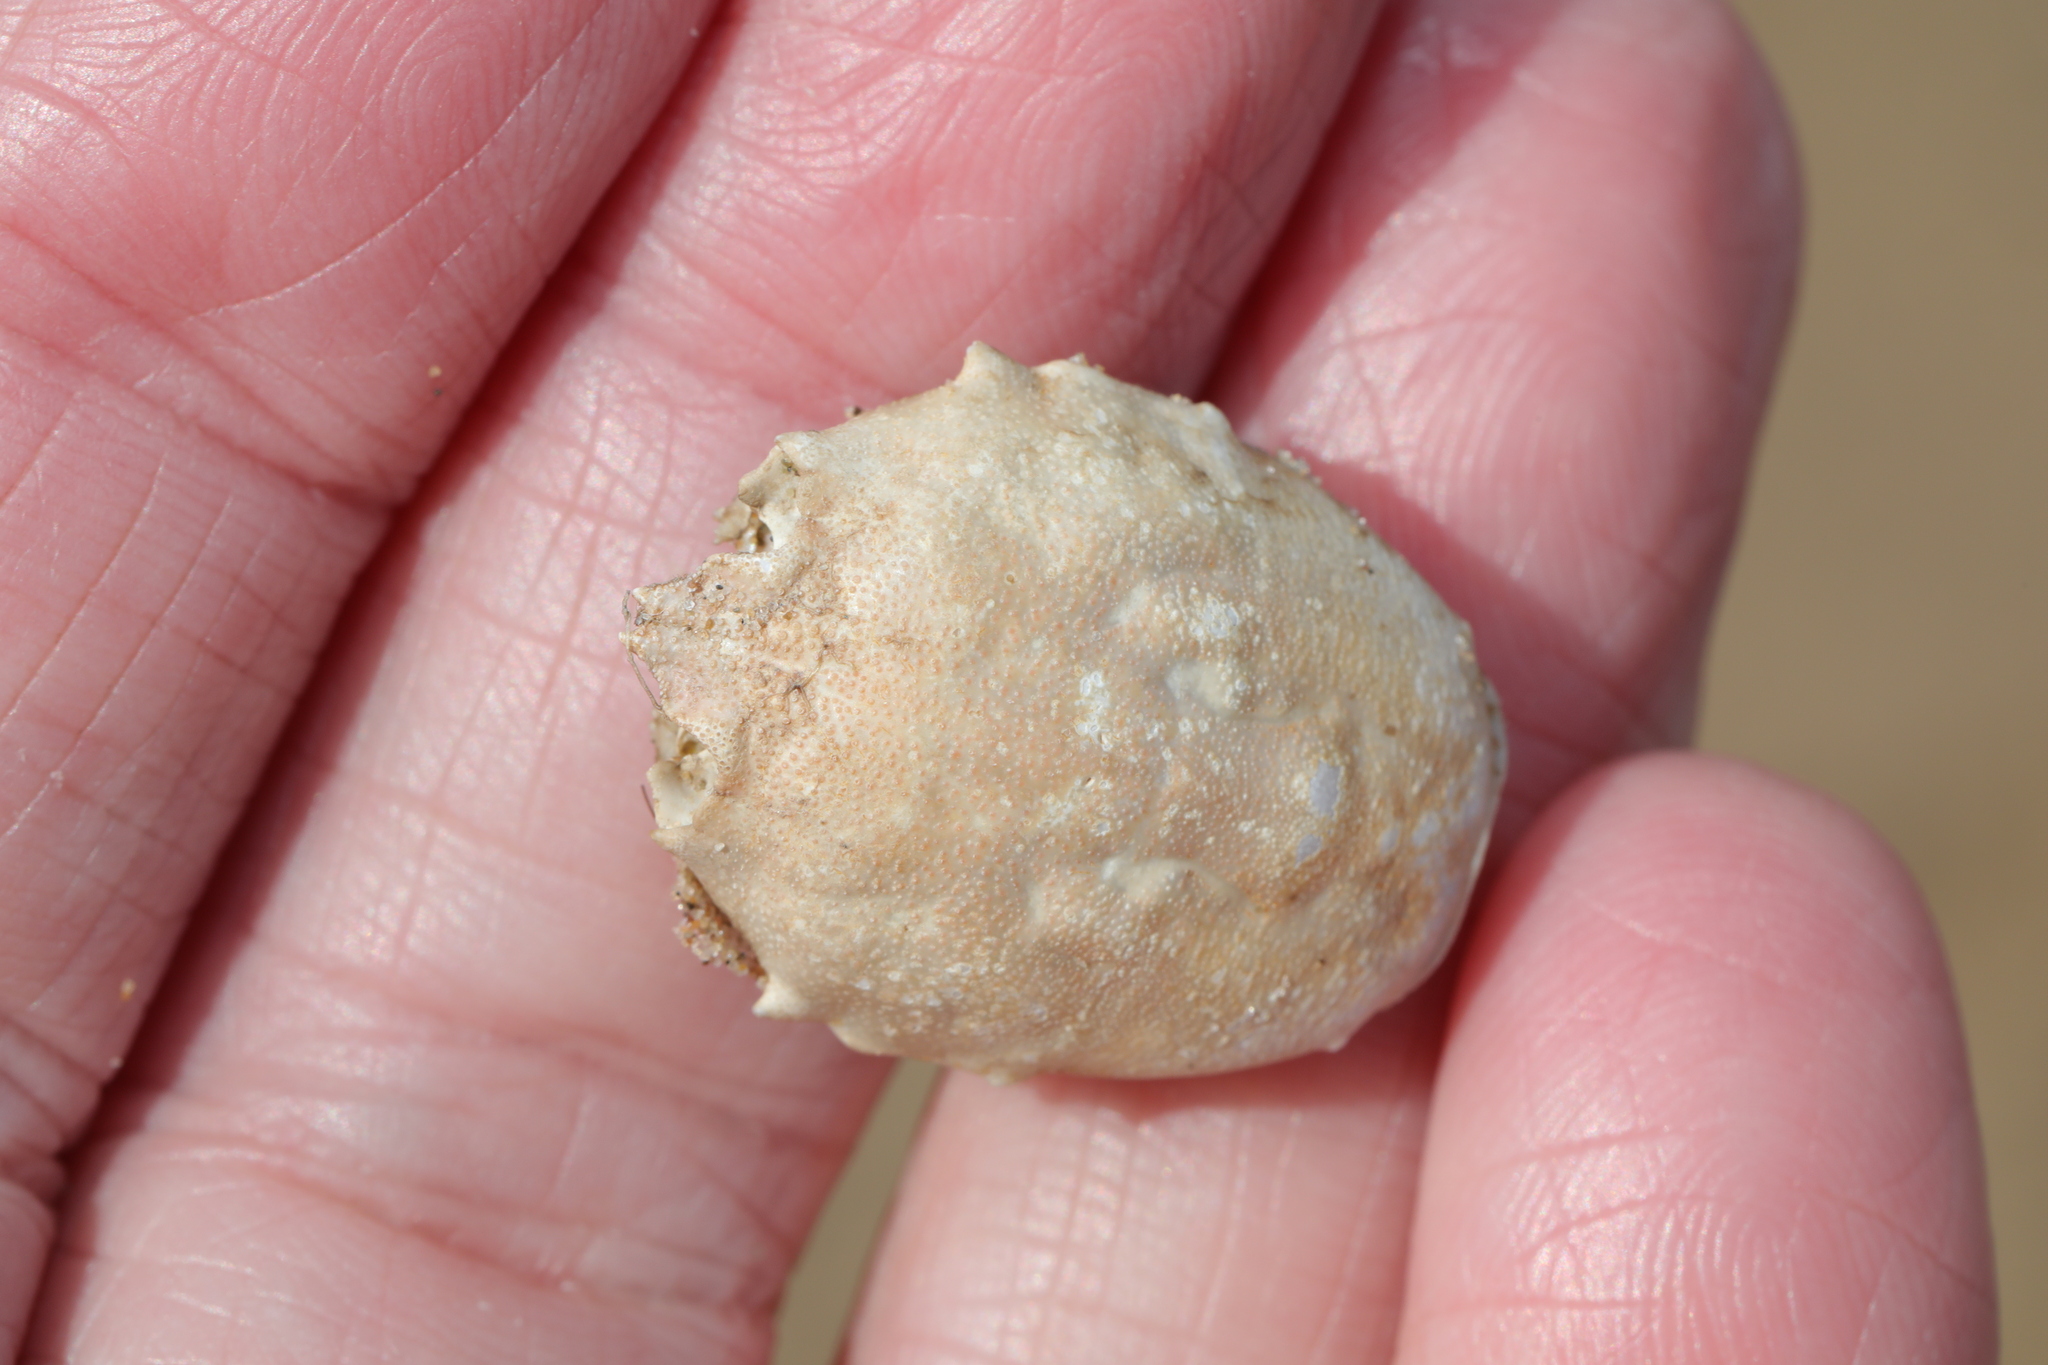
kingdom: Animalia
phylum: Arthropoda
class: Malacostraca
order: Decapoda
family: Corystidae
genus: Corystes
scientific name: Corystes cassivelaunus
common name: Masked crab
